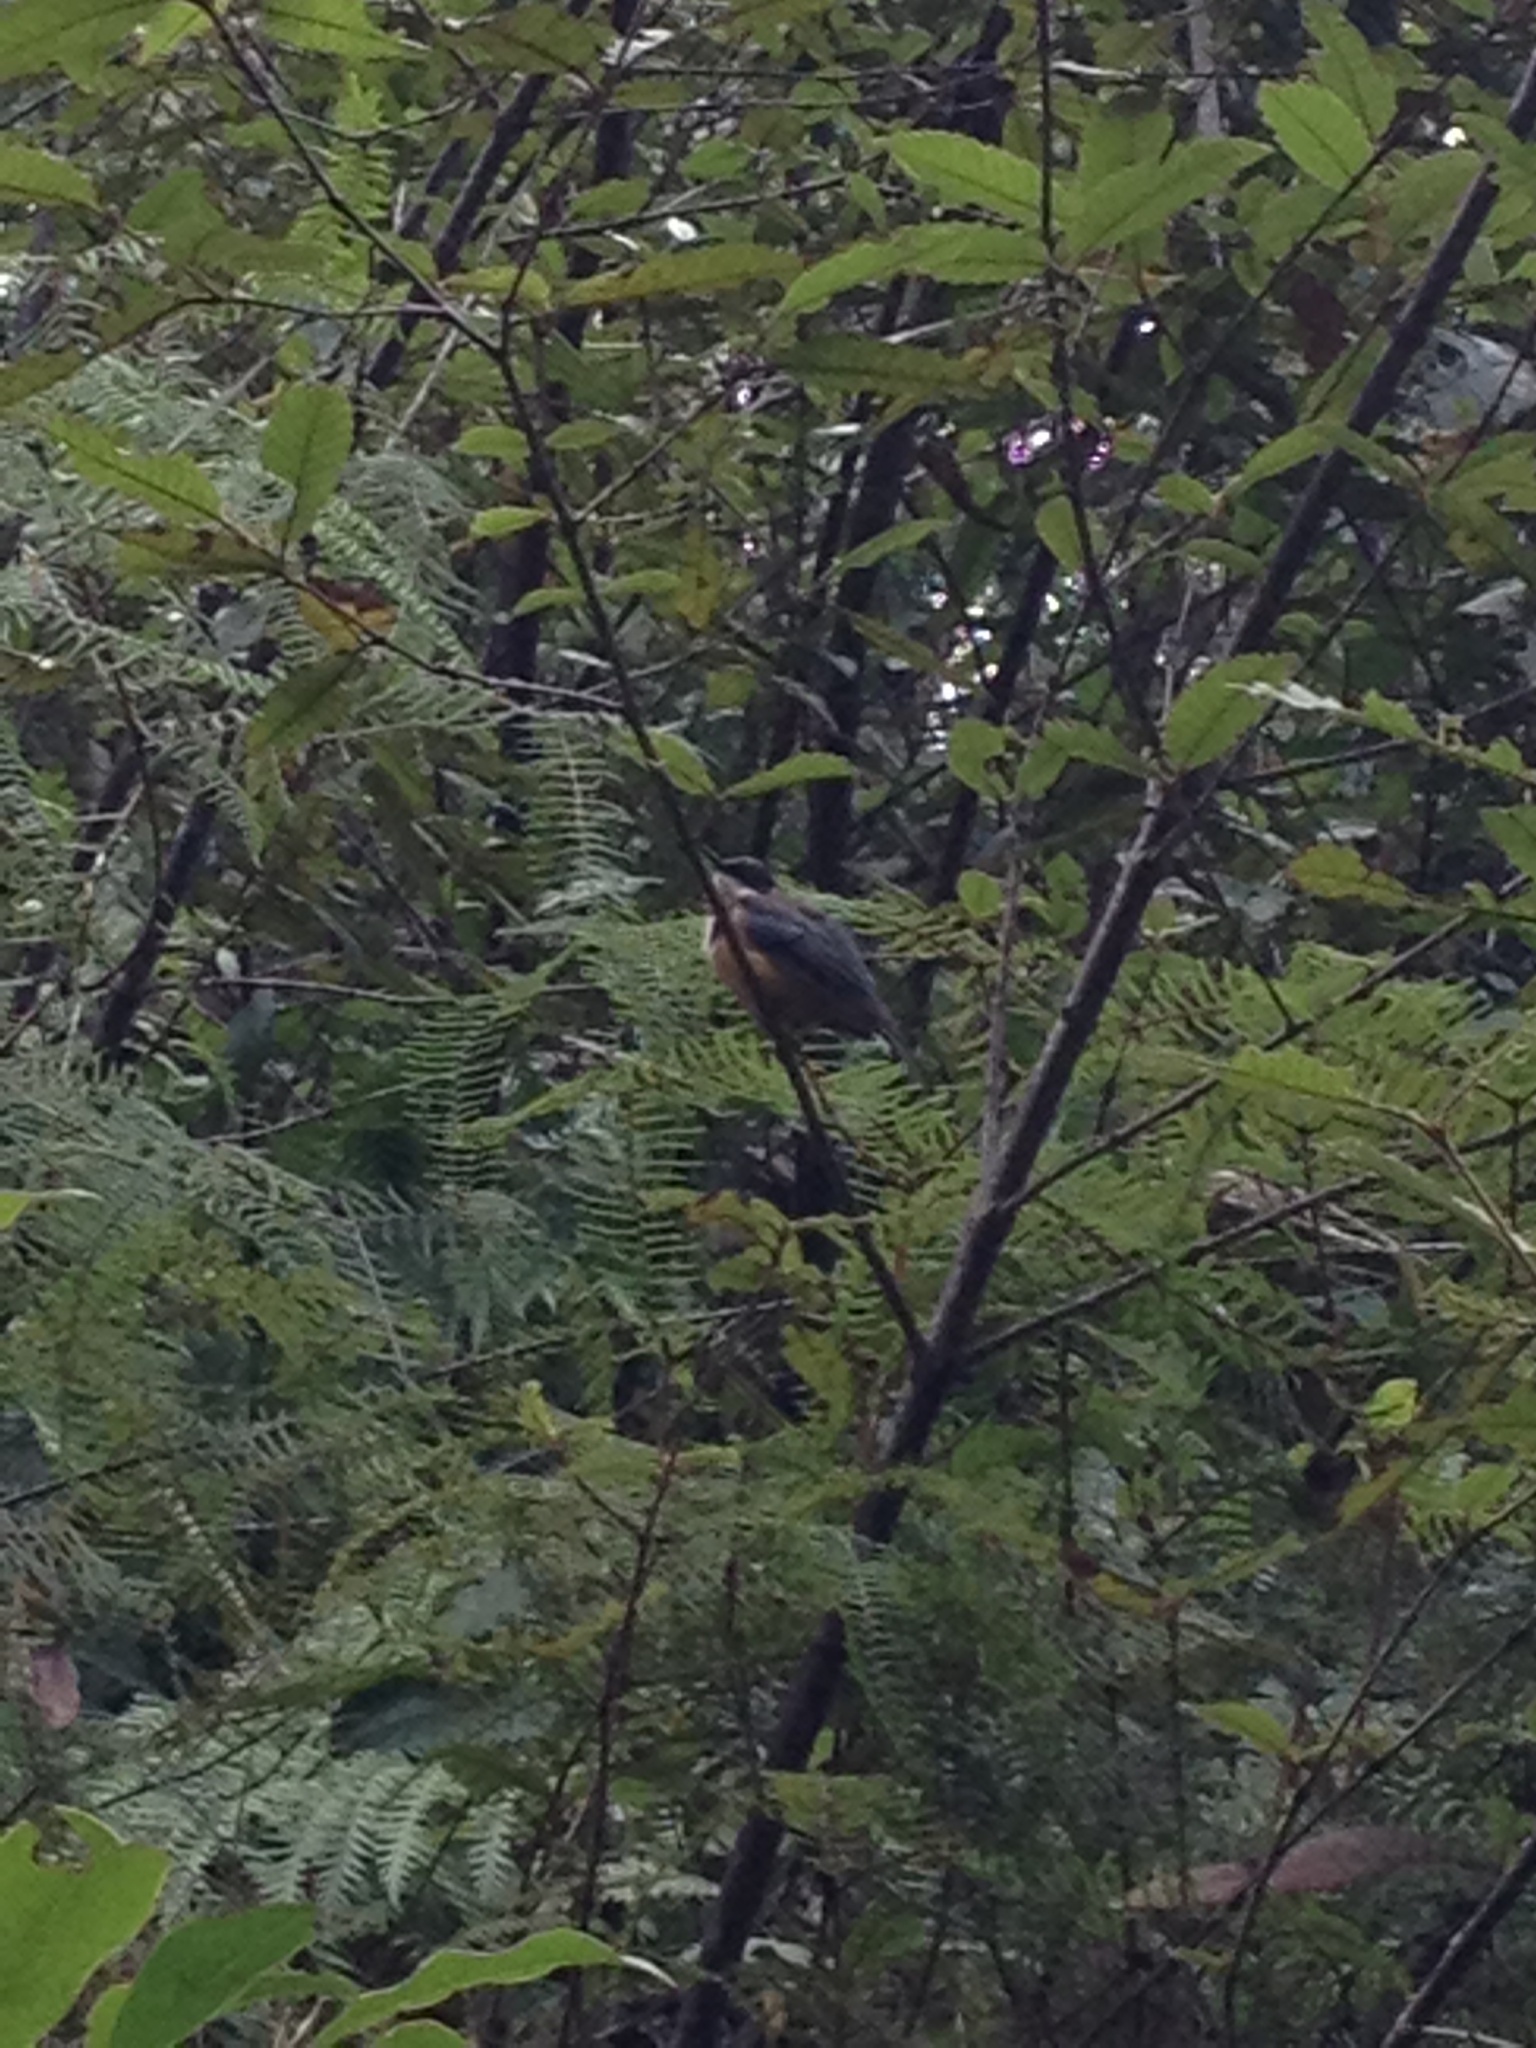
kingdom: Animalia
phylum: Chordata
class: Aves
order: Passeriformes
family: Meliphagidae
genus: Acanthorhynchus
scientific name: Acanthorhynchus tenuirostris
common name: Eastern spinebill
